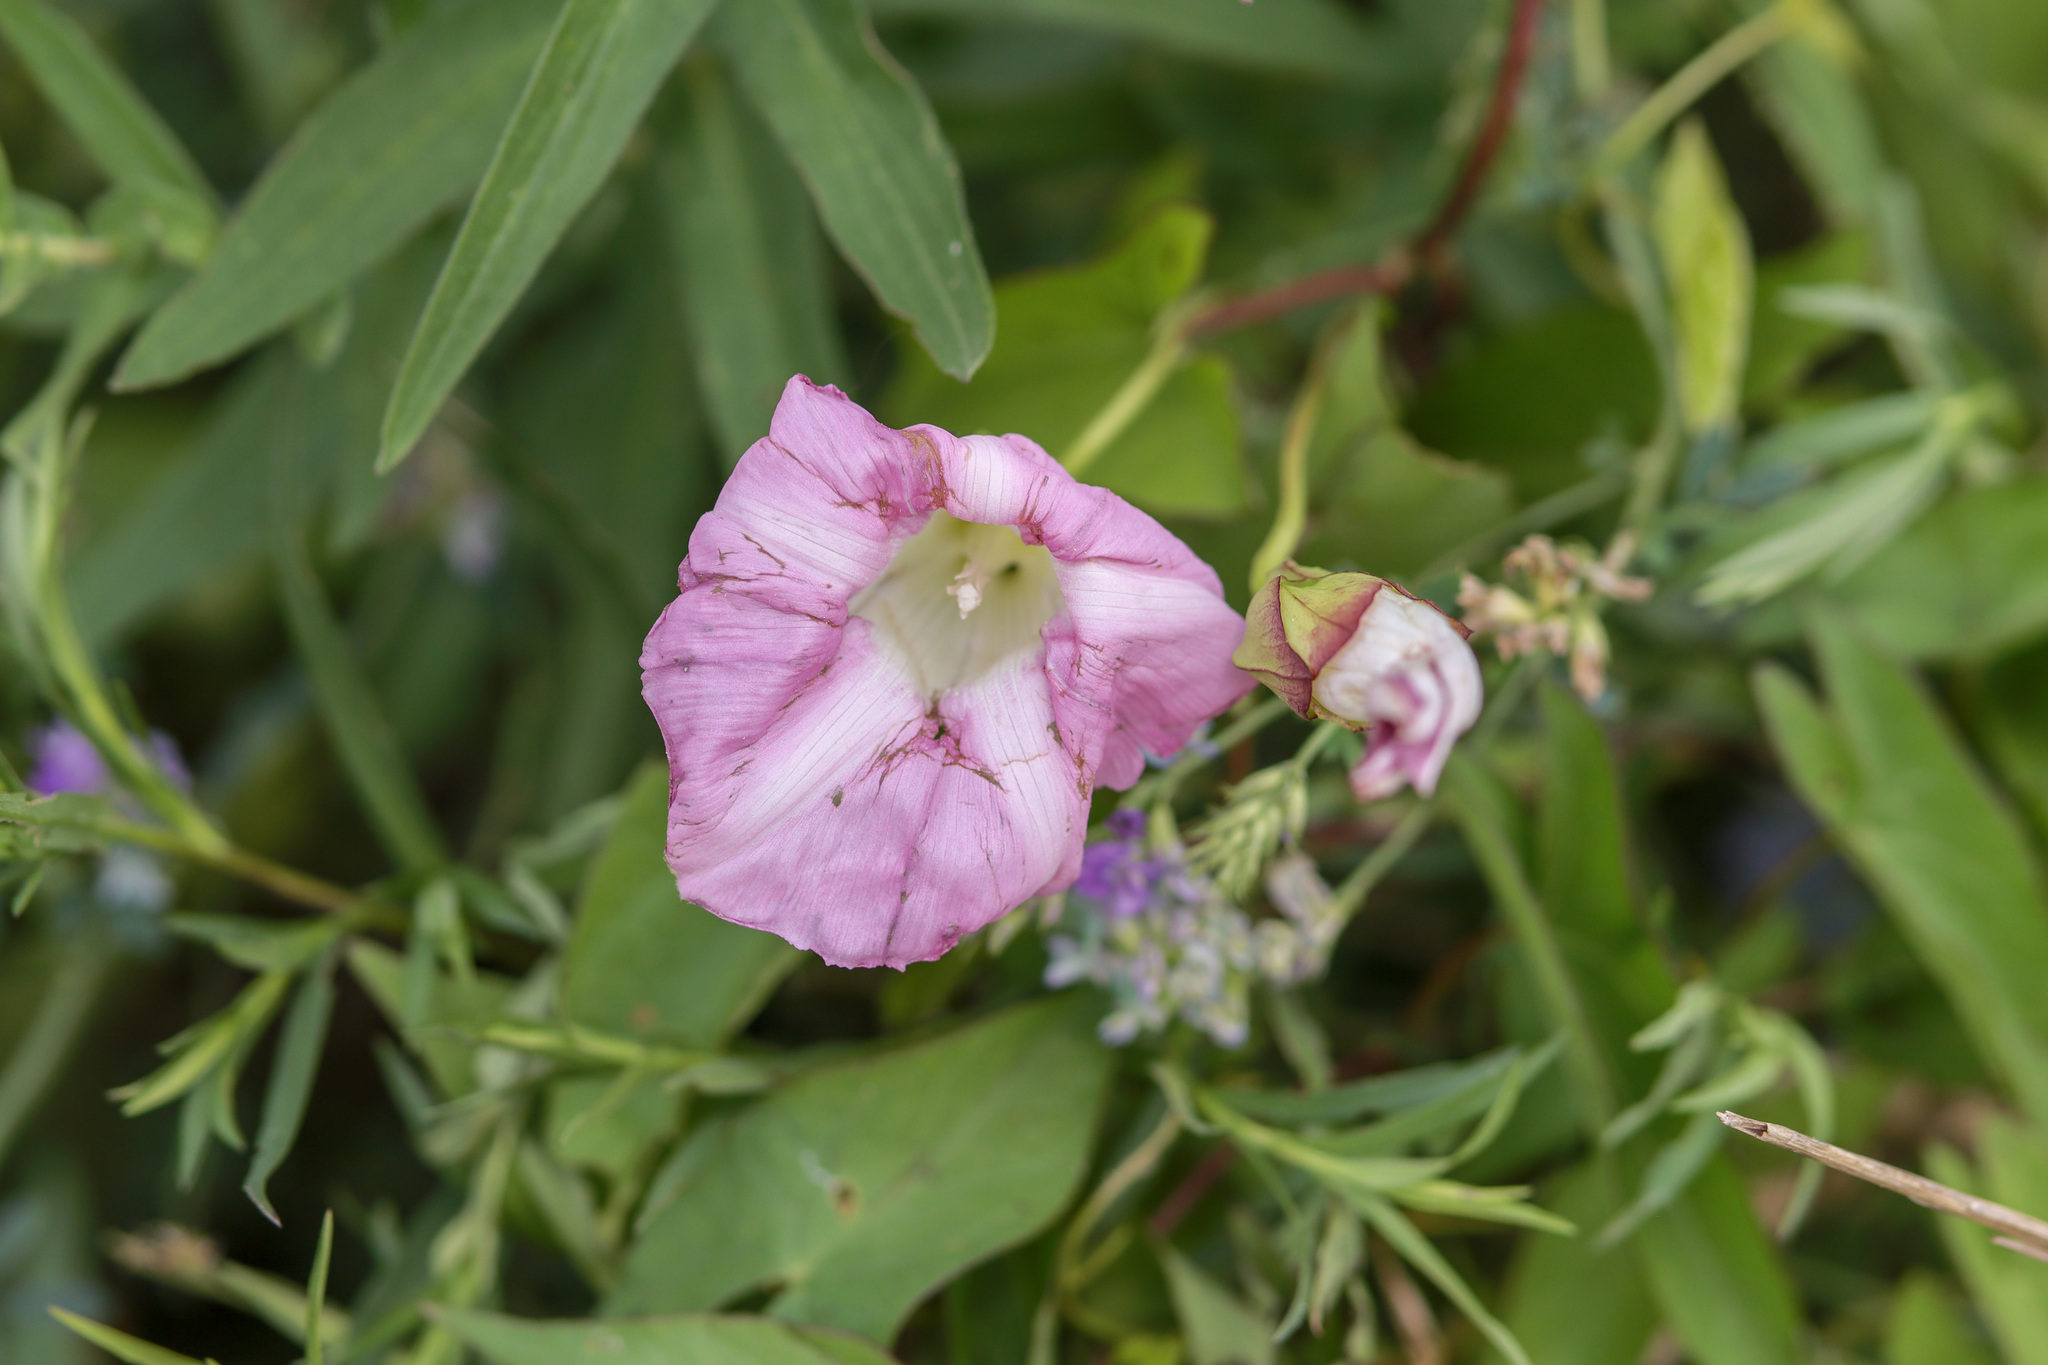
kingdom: Plantae
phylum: Tracheophyta
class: Magnoliopsida
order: Solanales
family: Convolvulaceae
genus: Convolvulus
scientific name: Convolvulus arvensis
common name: Field bindweed
